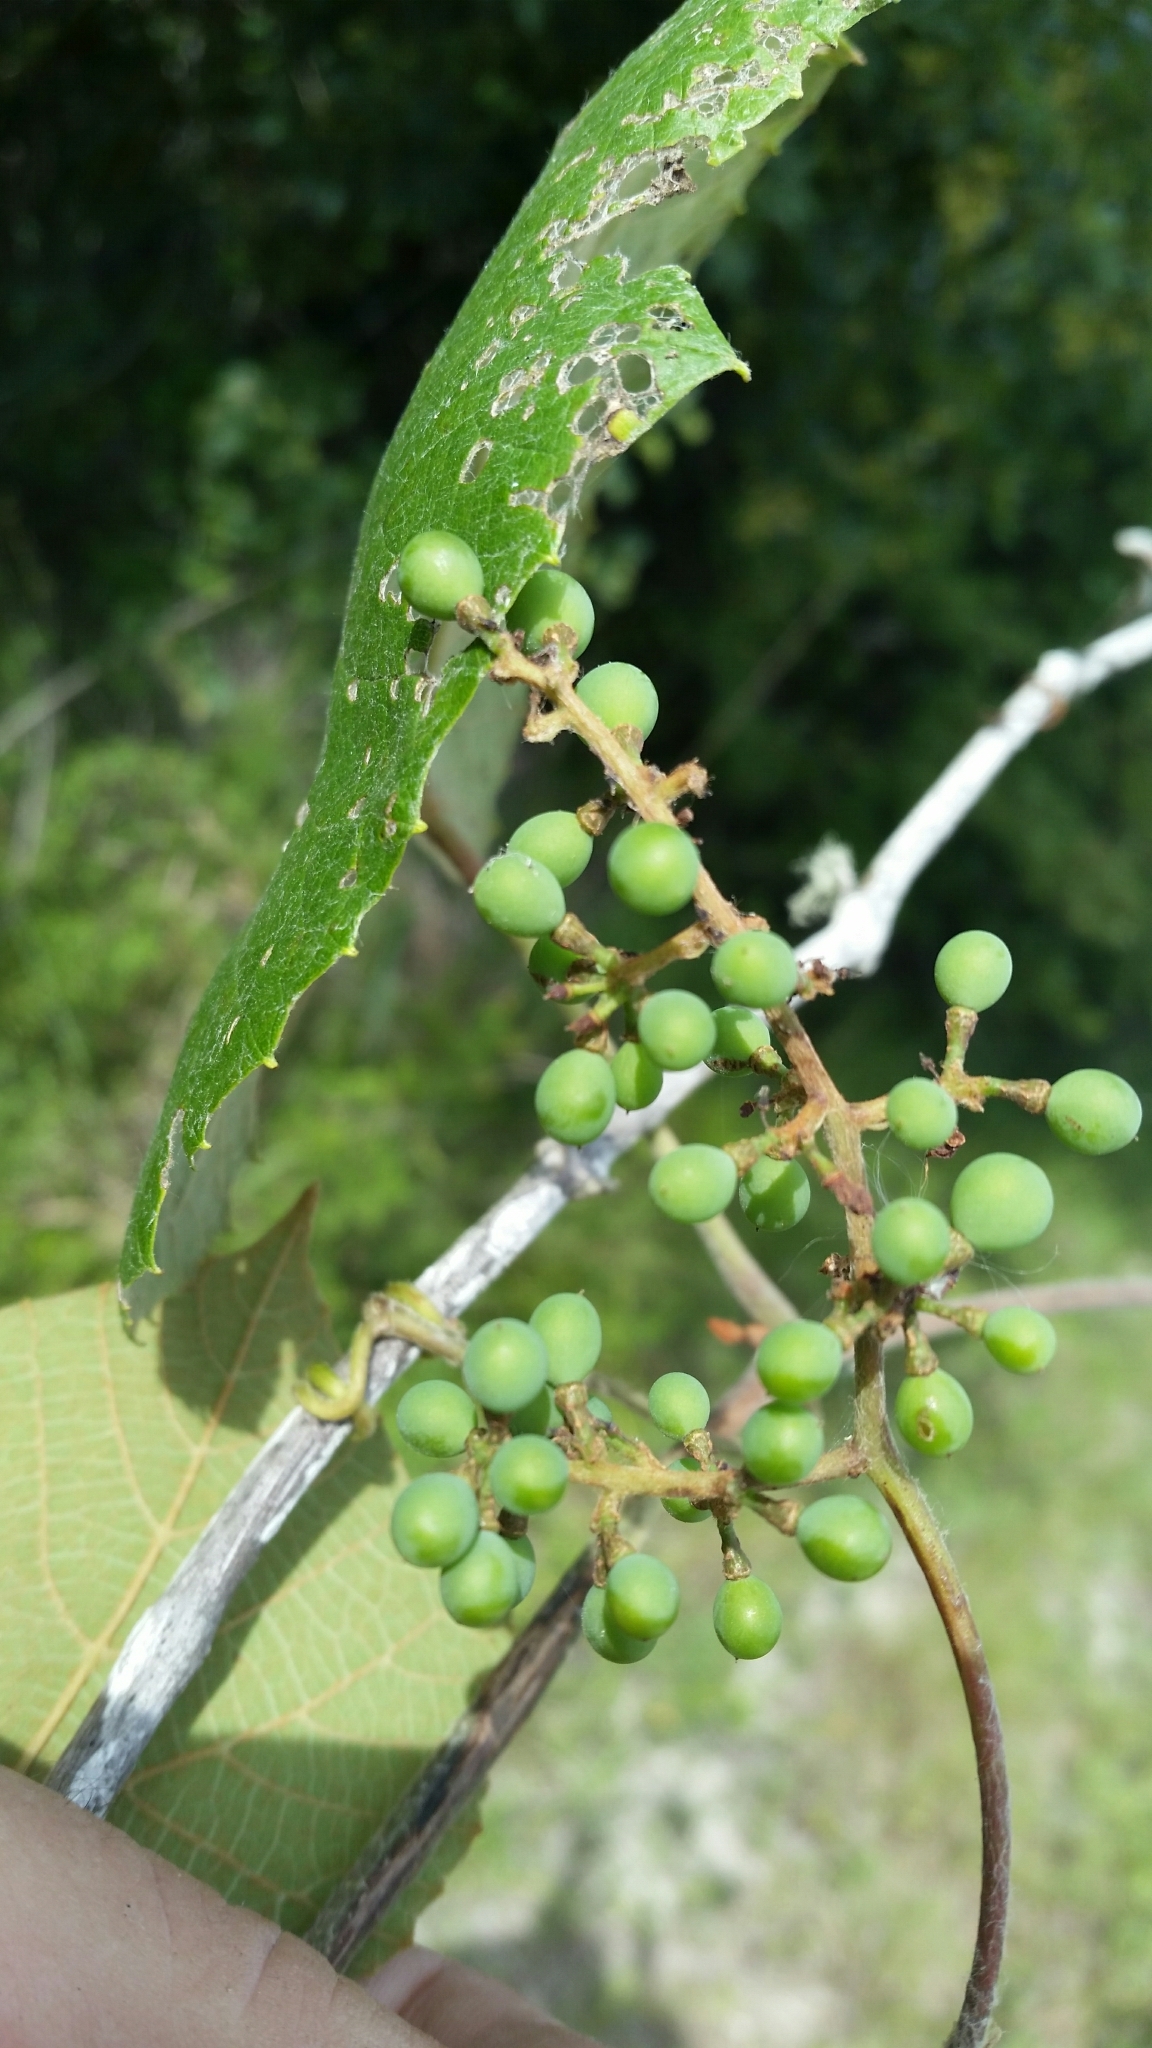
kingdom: Plantae
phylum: Tracheophyta
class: Magnoliopsida
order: Vitales
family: Vitaceae
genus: Vitis
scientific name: Vitis cinerea
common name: Ashy grape
